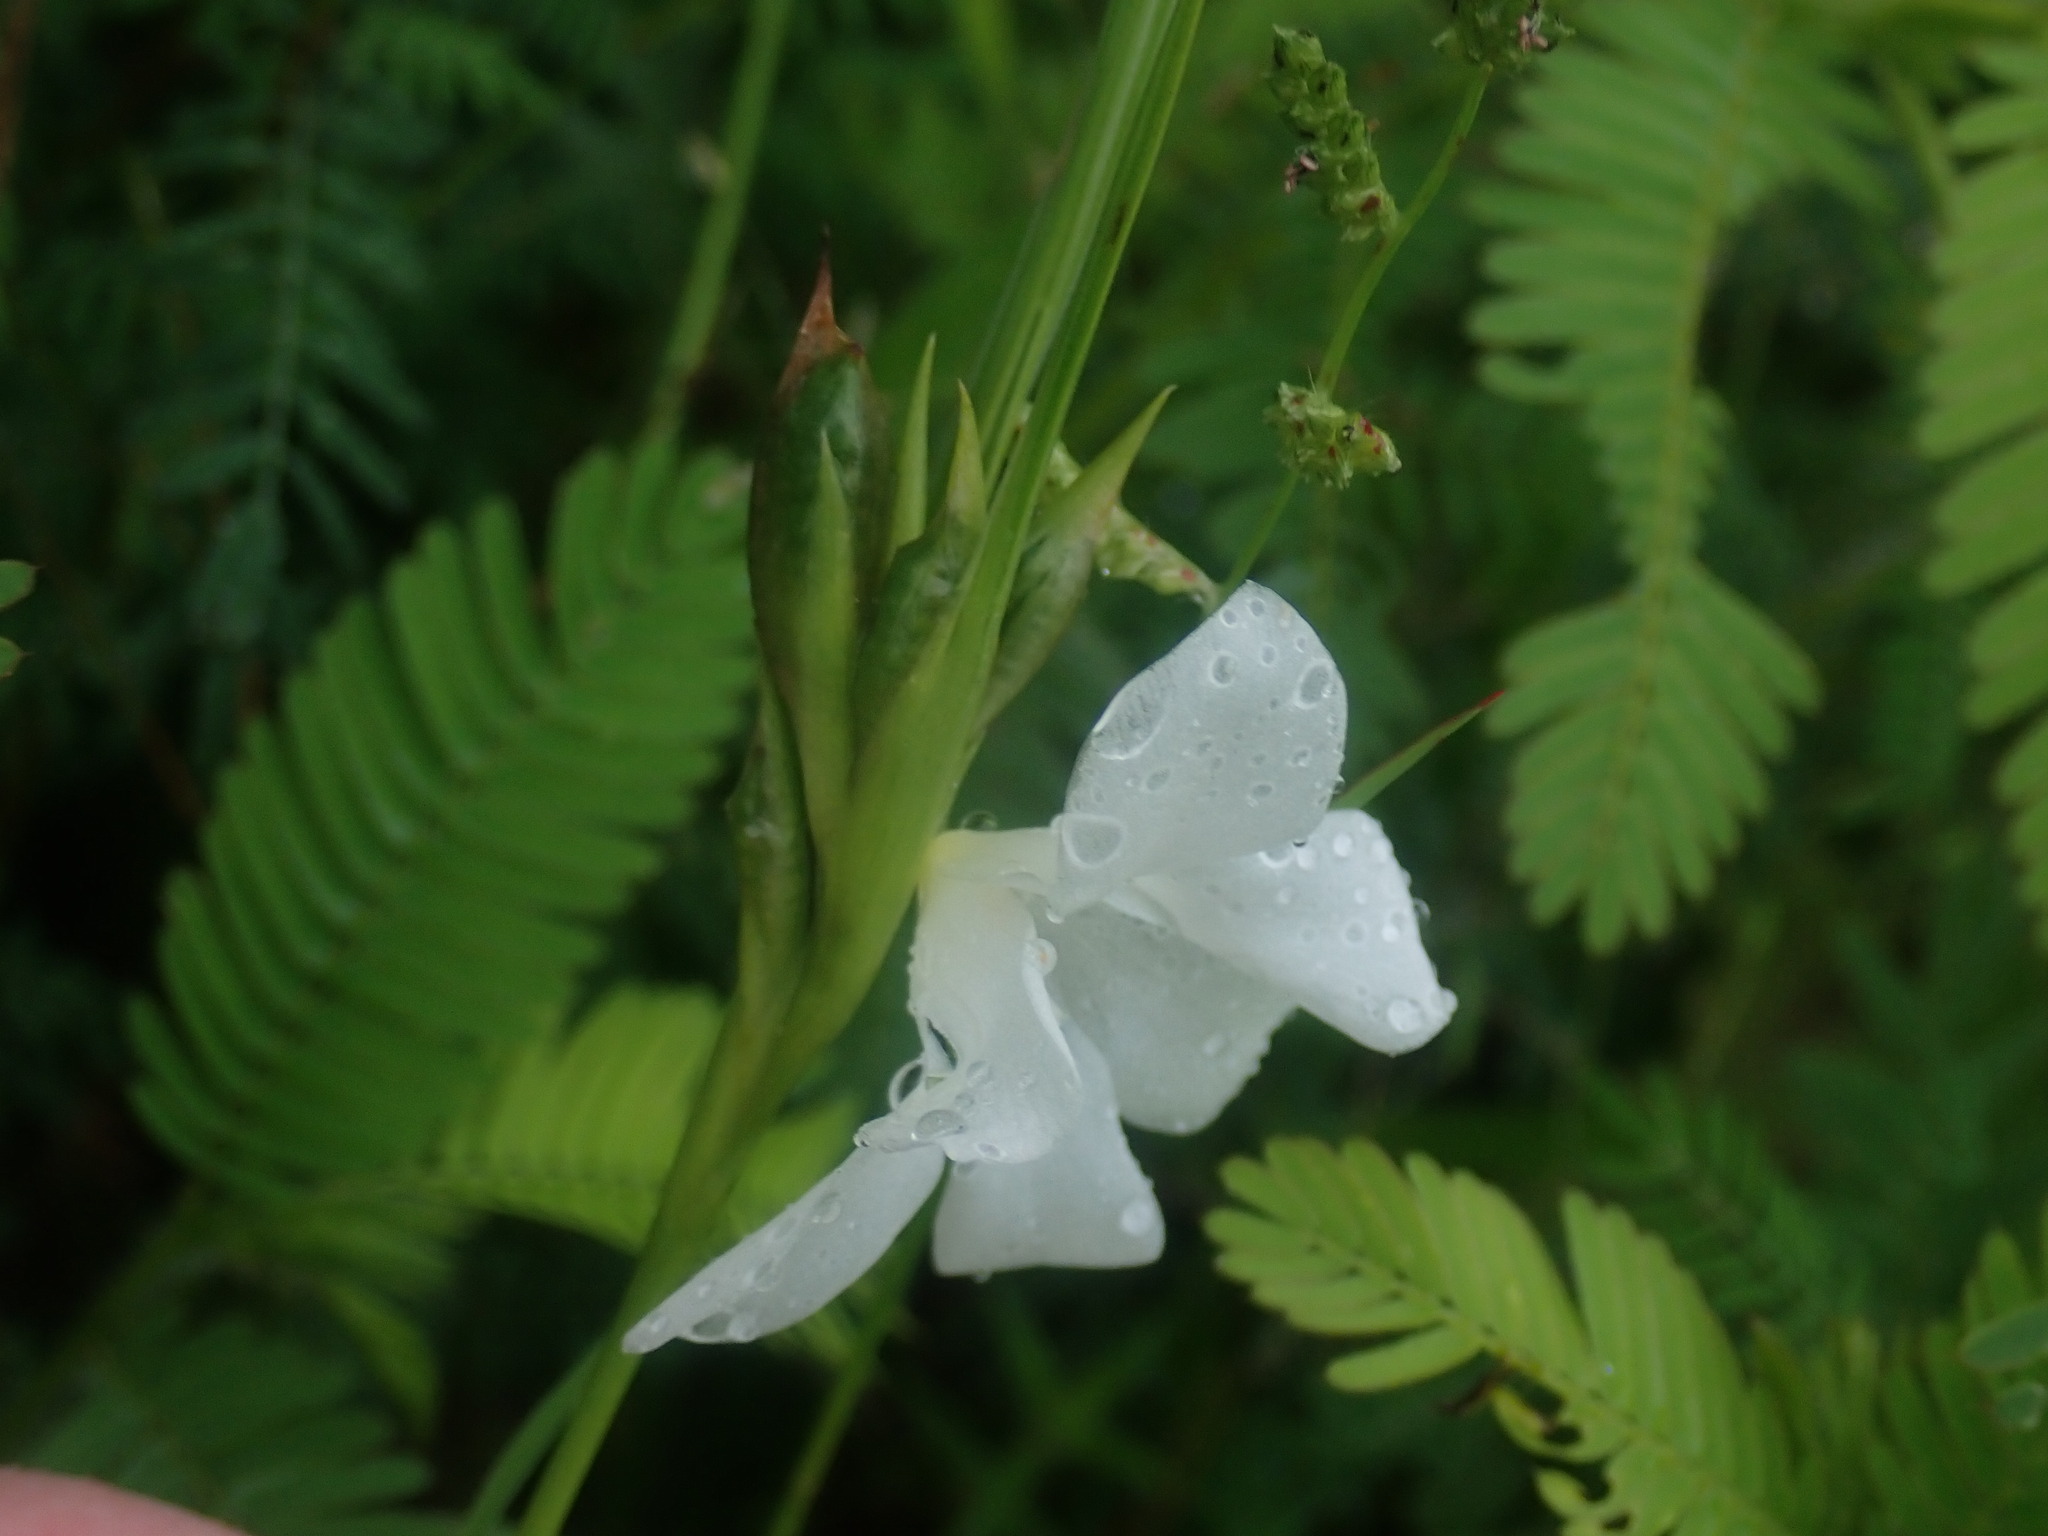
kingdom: Plantae
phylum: Tracheophyta
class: Liliopsida
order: Asparagales
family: Iridaceae
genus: Cipura
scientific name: Cipura campanulata
